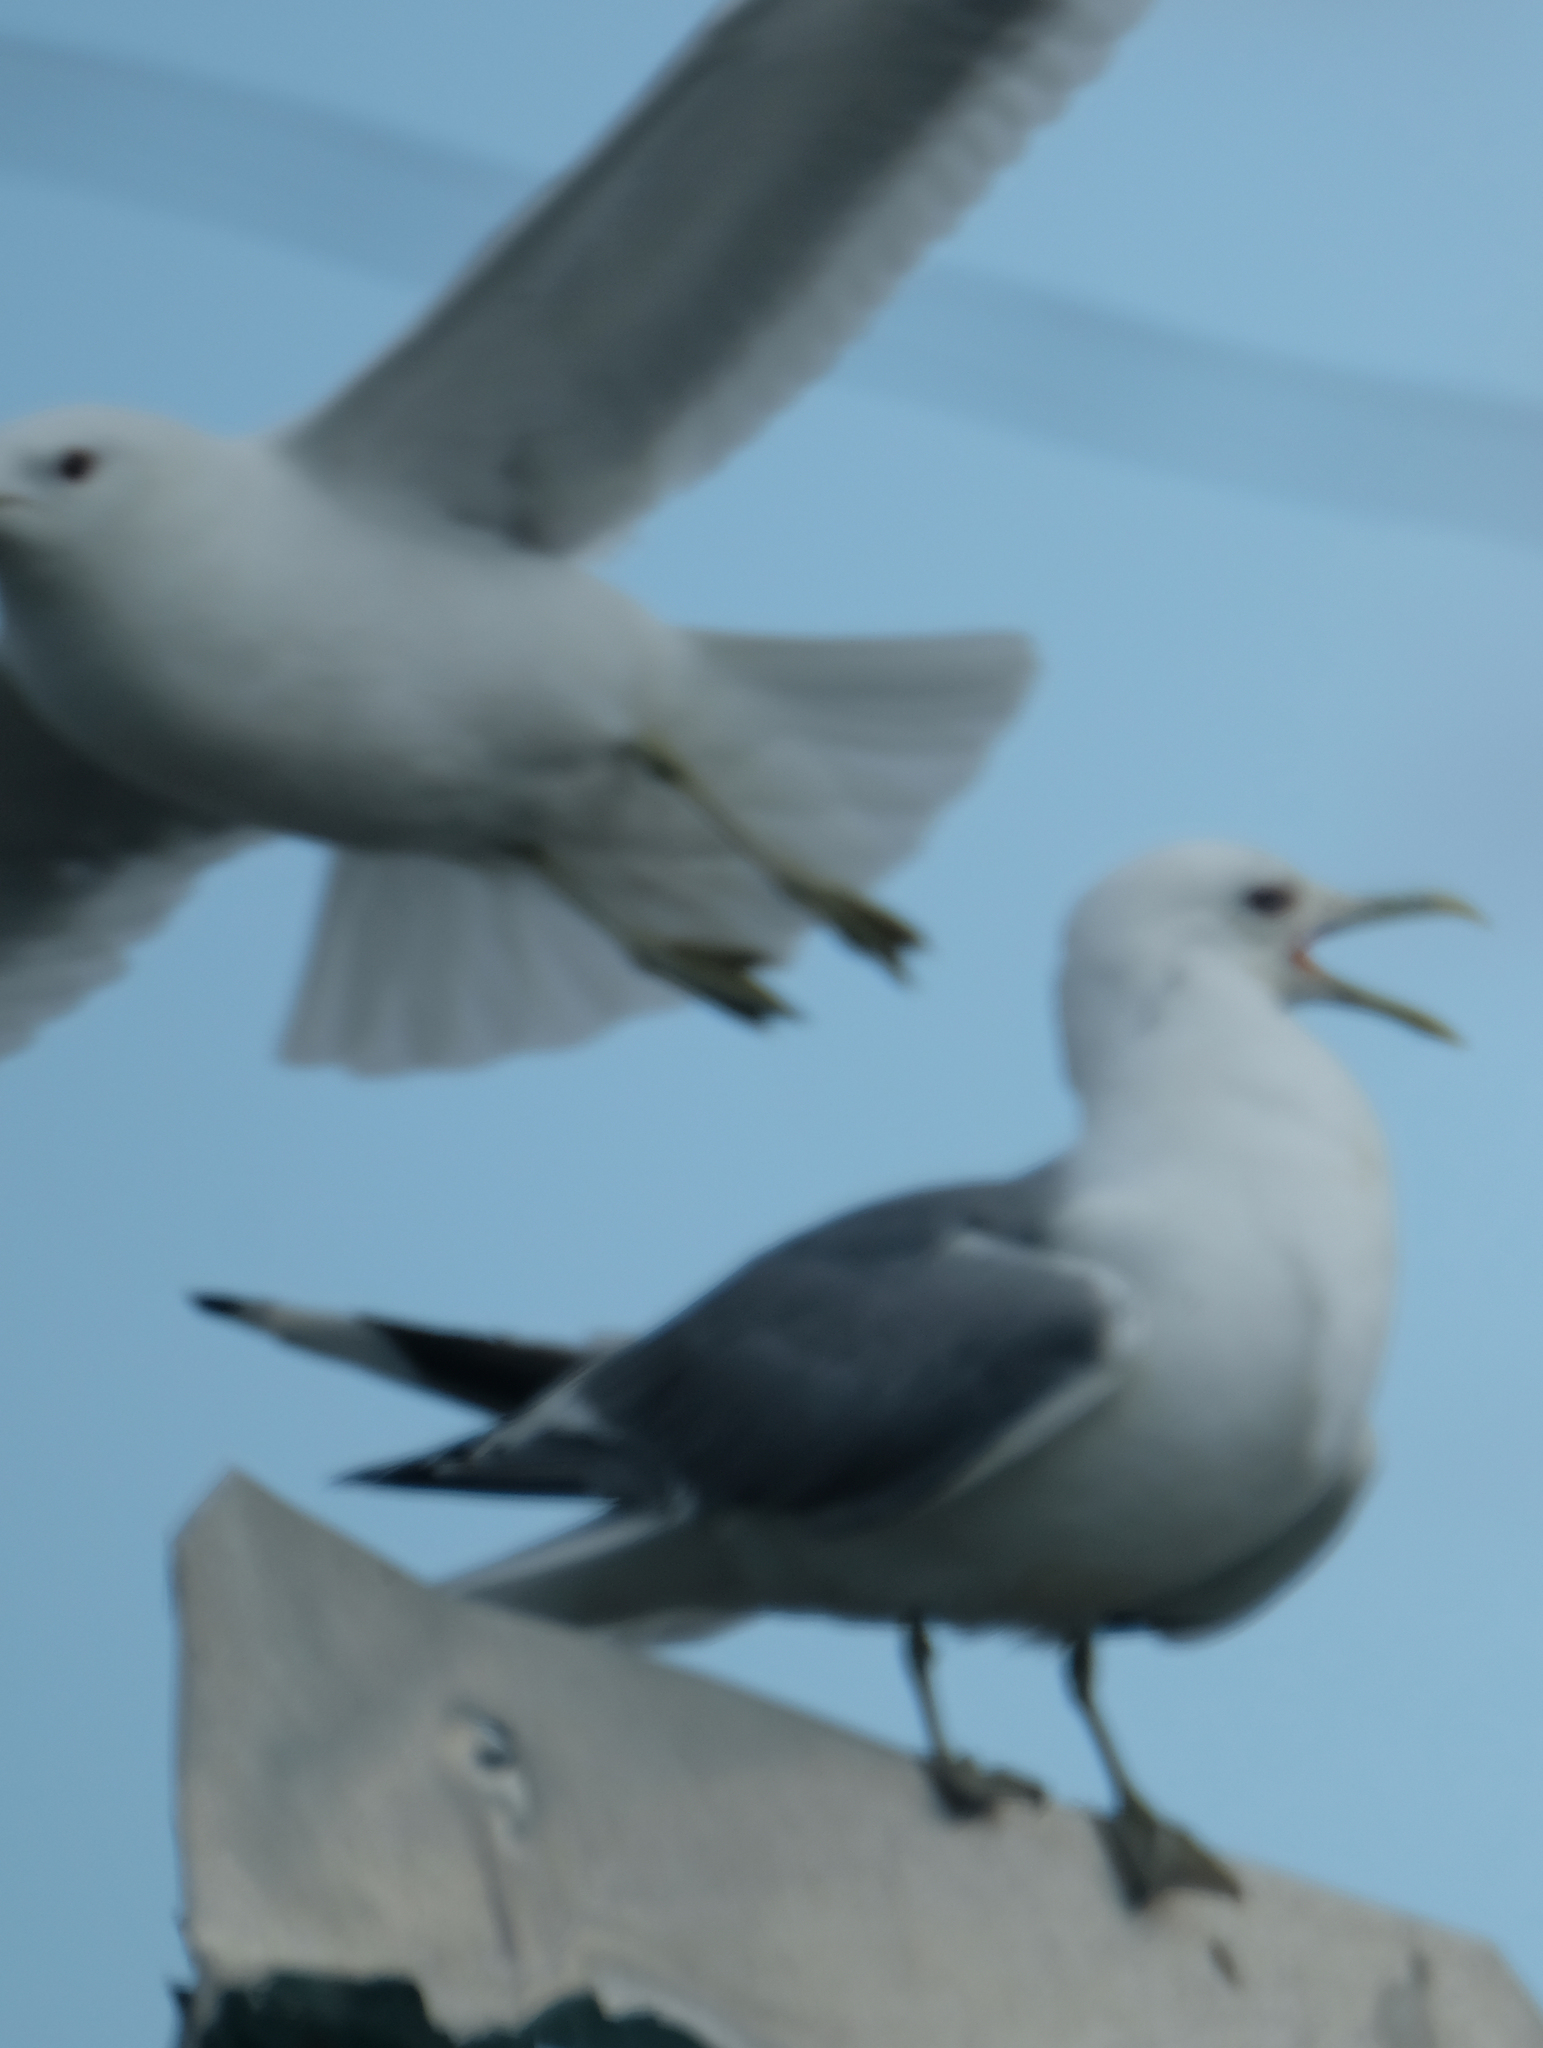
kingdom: Animalia
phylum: Chordata
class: Aves
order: Charadriiformes
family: Laridae
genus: Larus
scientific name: Larus brachyrhynchus
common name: Short-billed gull
